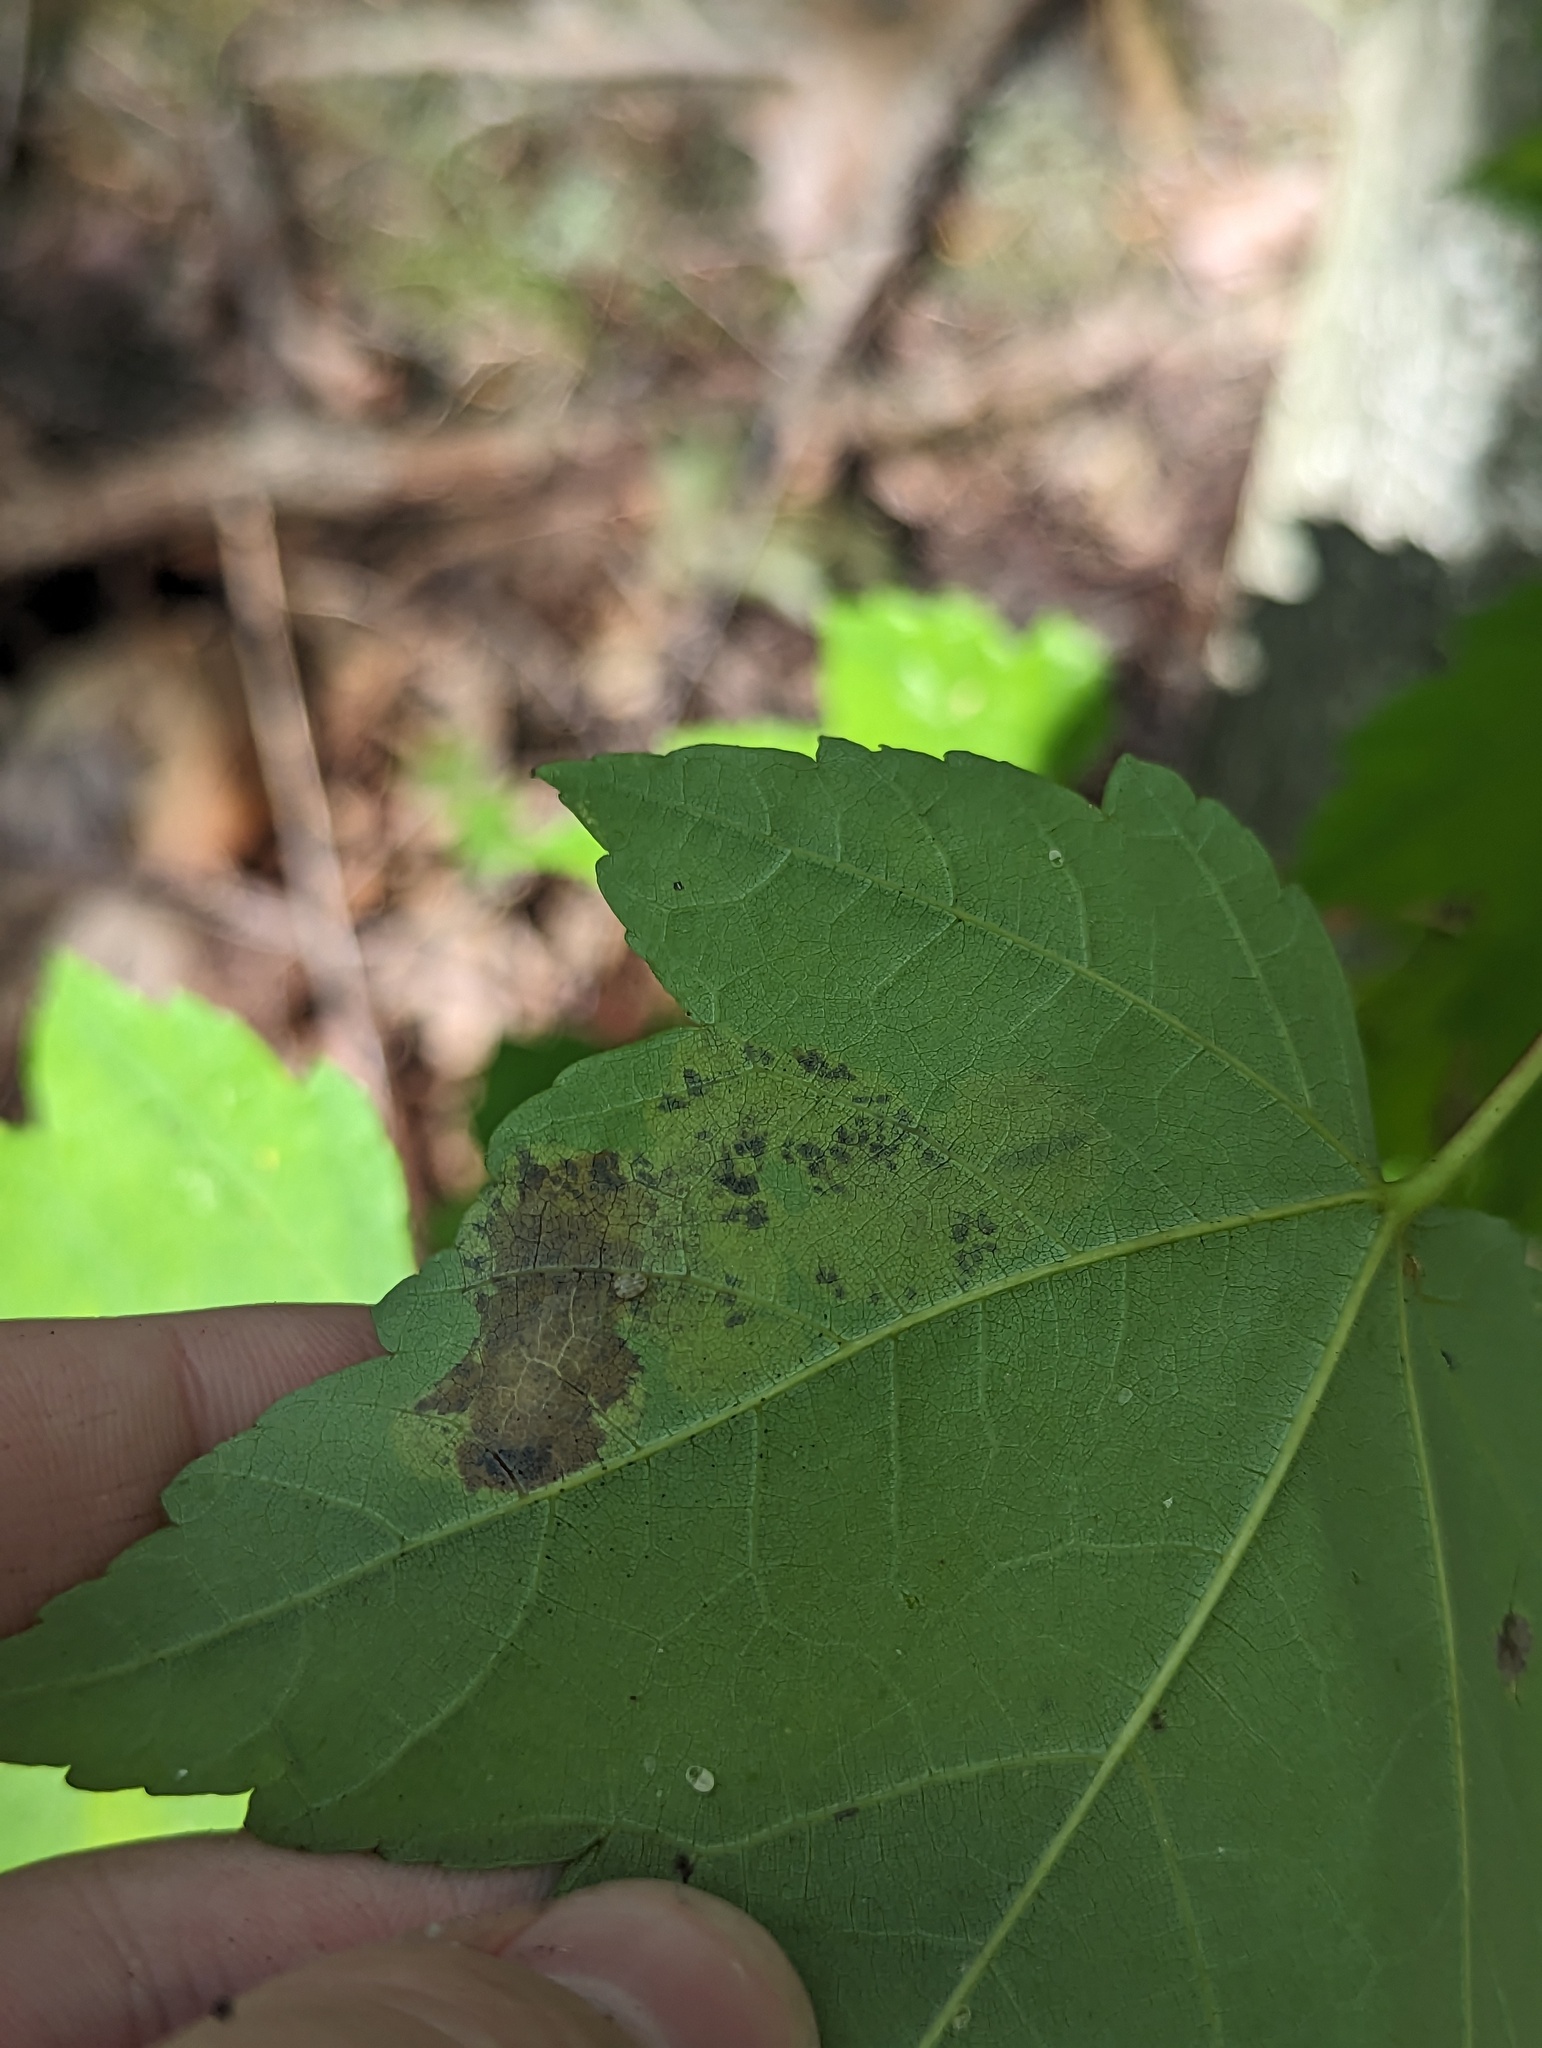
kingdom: Animalia
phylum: Arthropoda
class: Insecta
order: Lepidoptera
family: Gracillariidae
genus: Cameraria
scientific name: Cameraria aceriella
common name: Maple leafblotch miner
